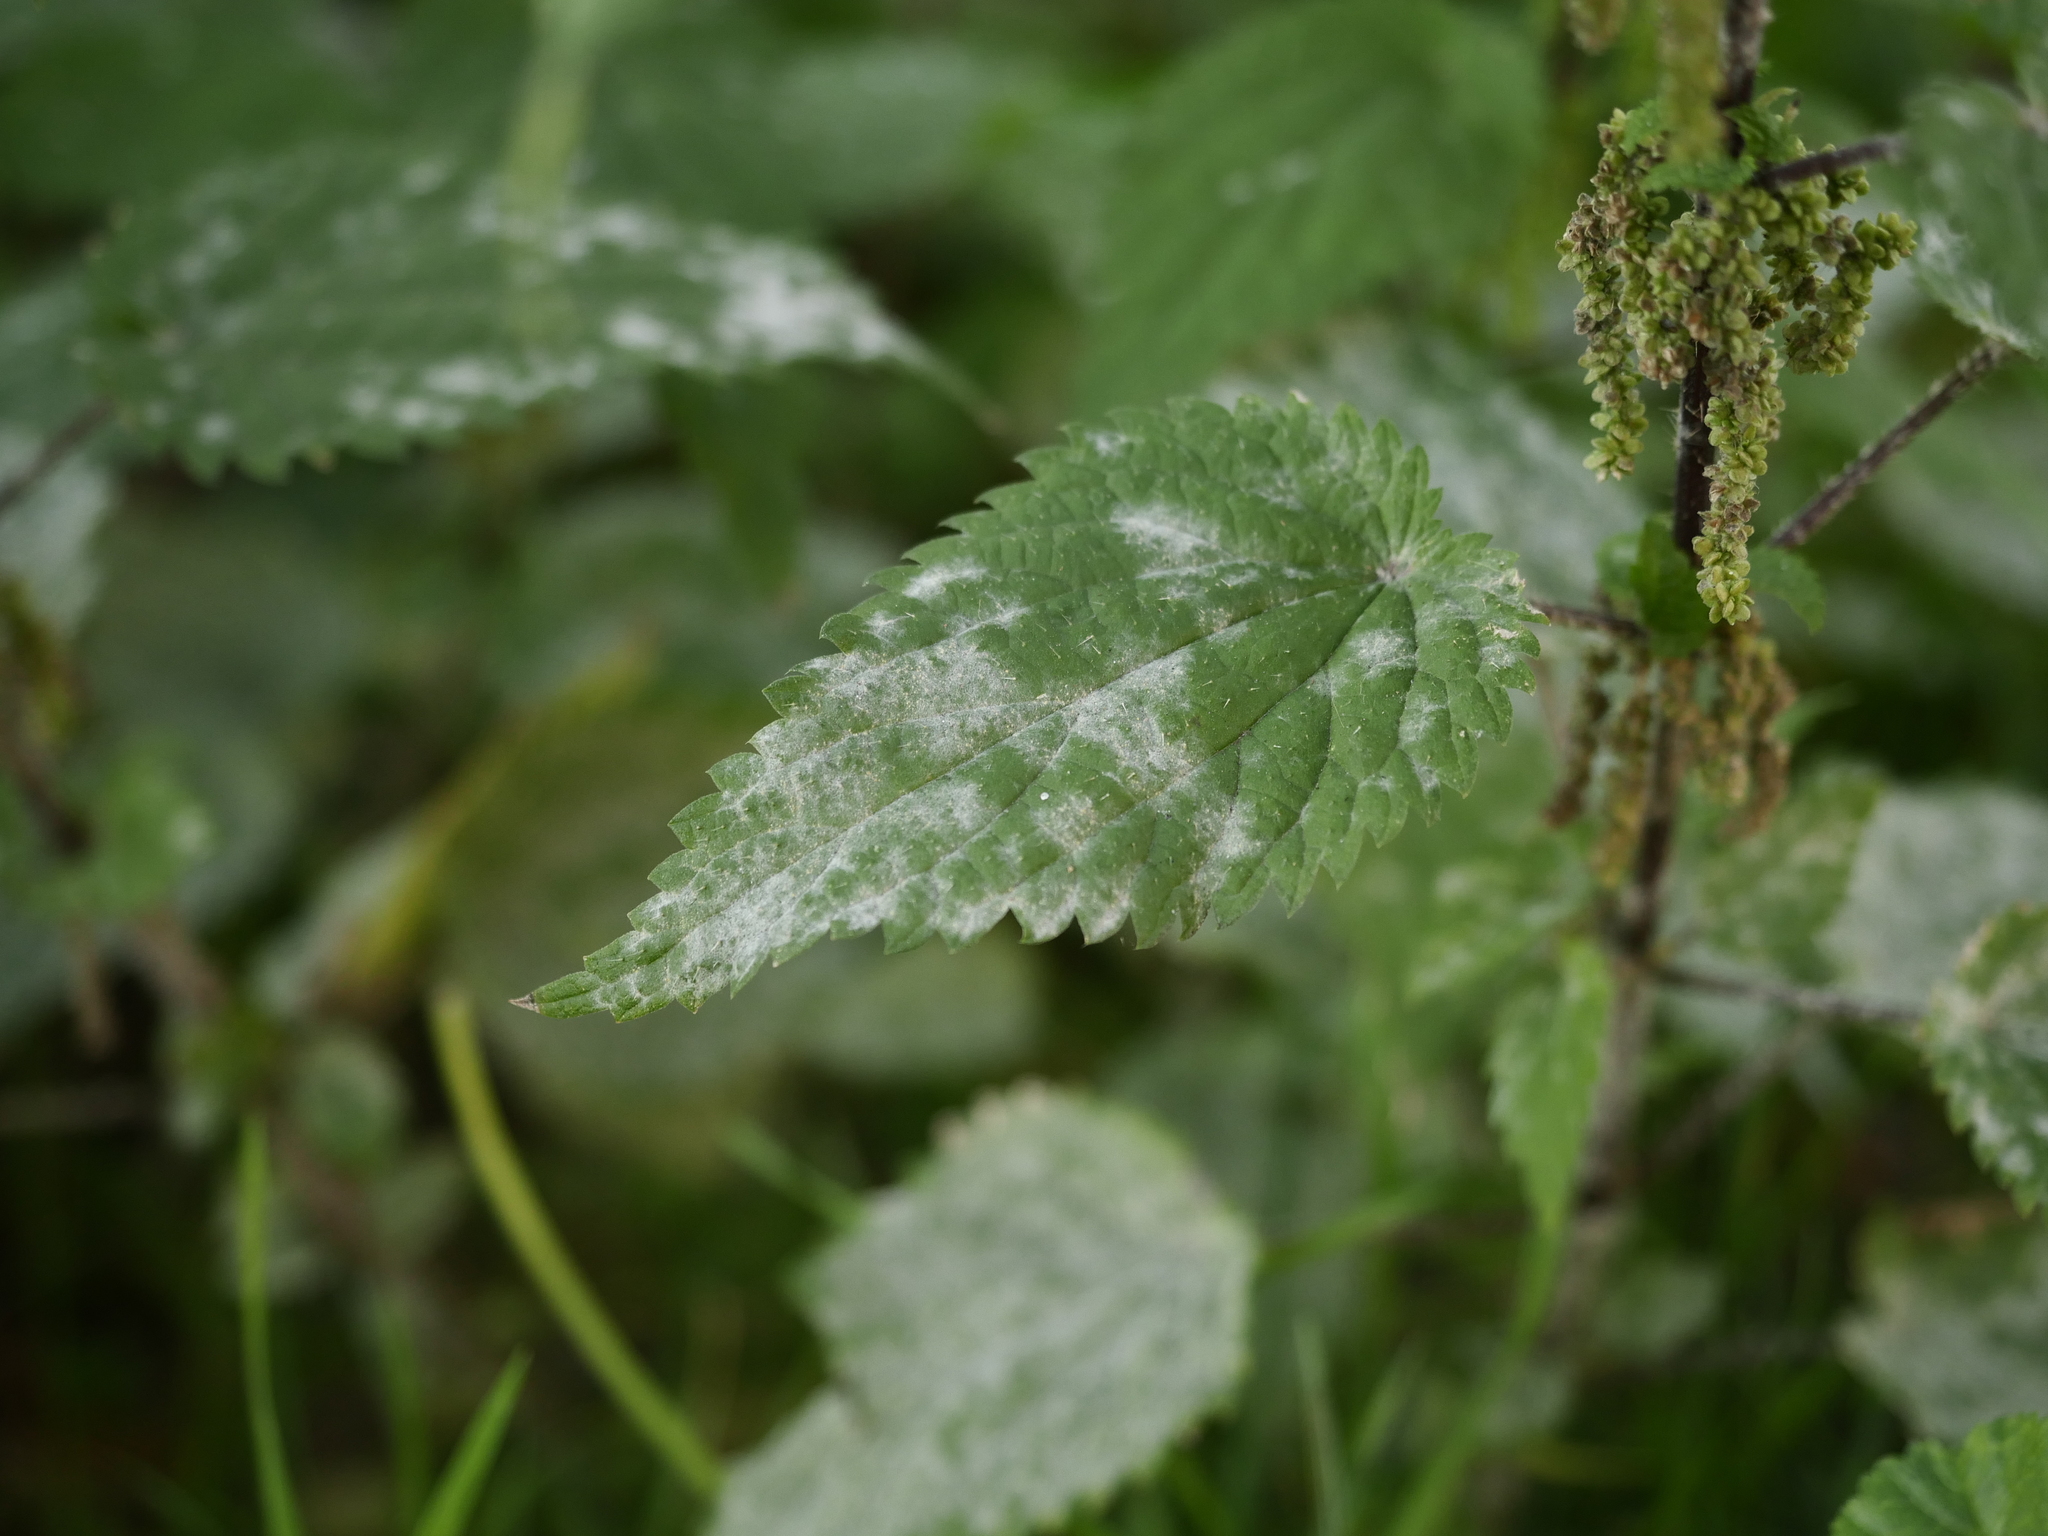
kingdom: Fungi
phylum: Ascomycota
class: Leotiomycetes
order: Helotiales
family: Erysiphaceae
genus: Erysiphe
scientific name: Erysiphe urticae
